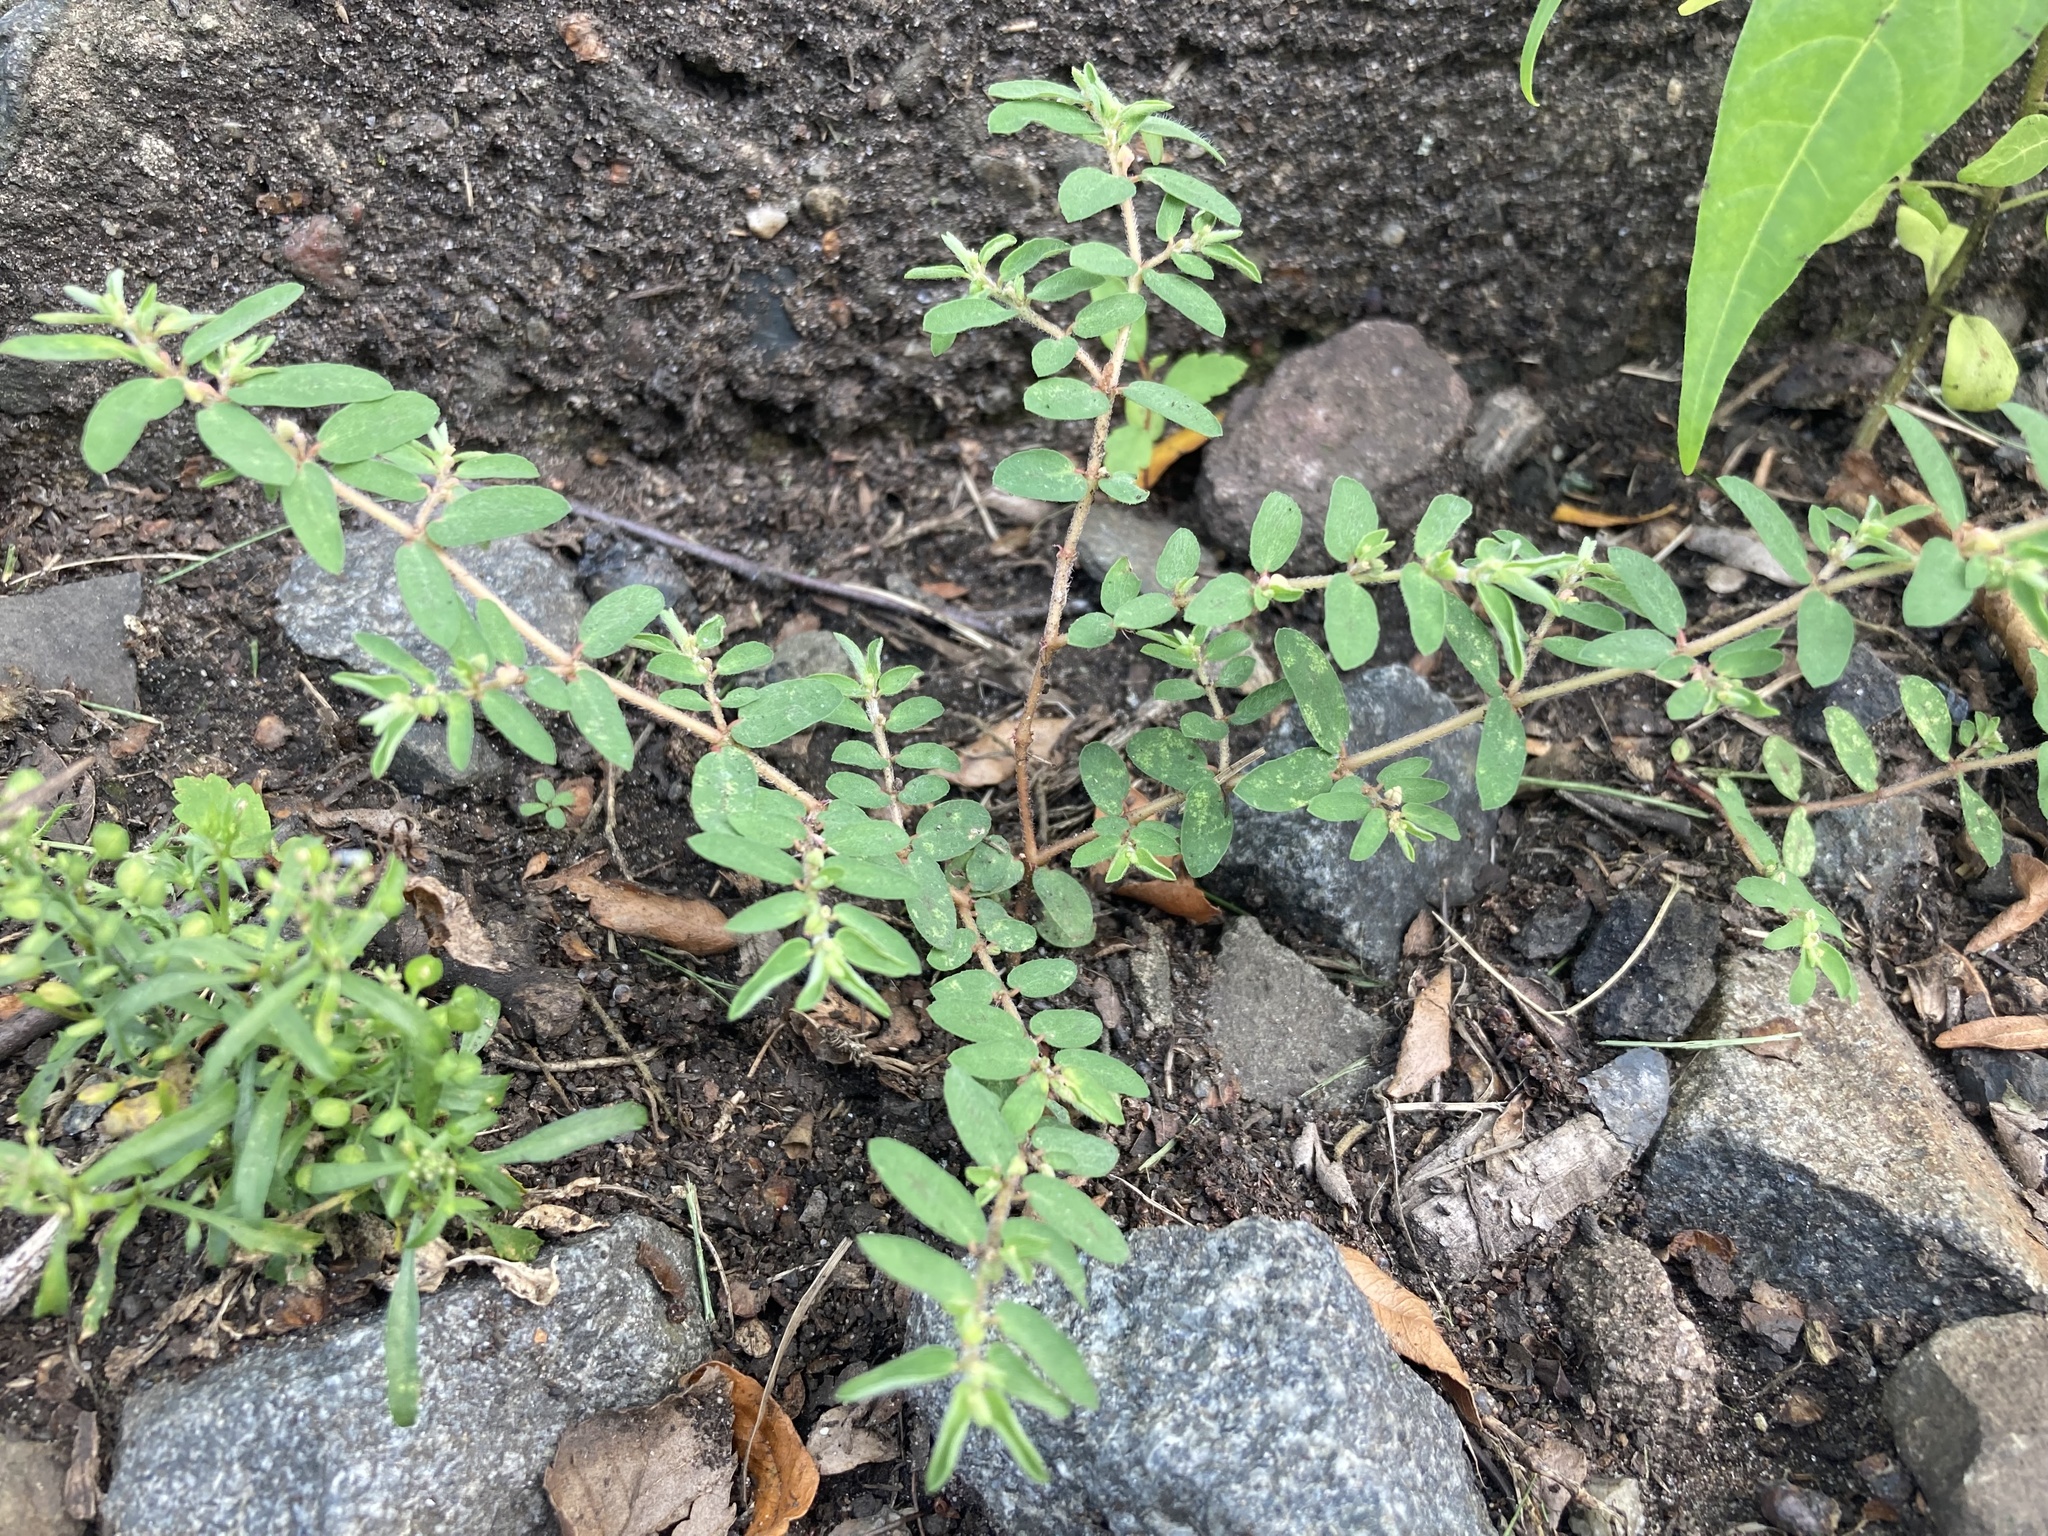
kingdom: Plantae
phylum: Tracheophyta
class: Magnoliopsida
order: Malpighiales
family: Euphorbiaceae
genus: Euphorbia
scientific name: Euphorbia maculata
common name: Spotted spurge
